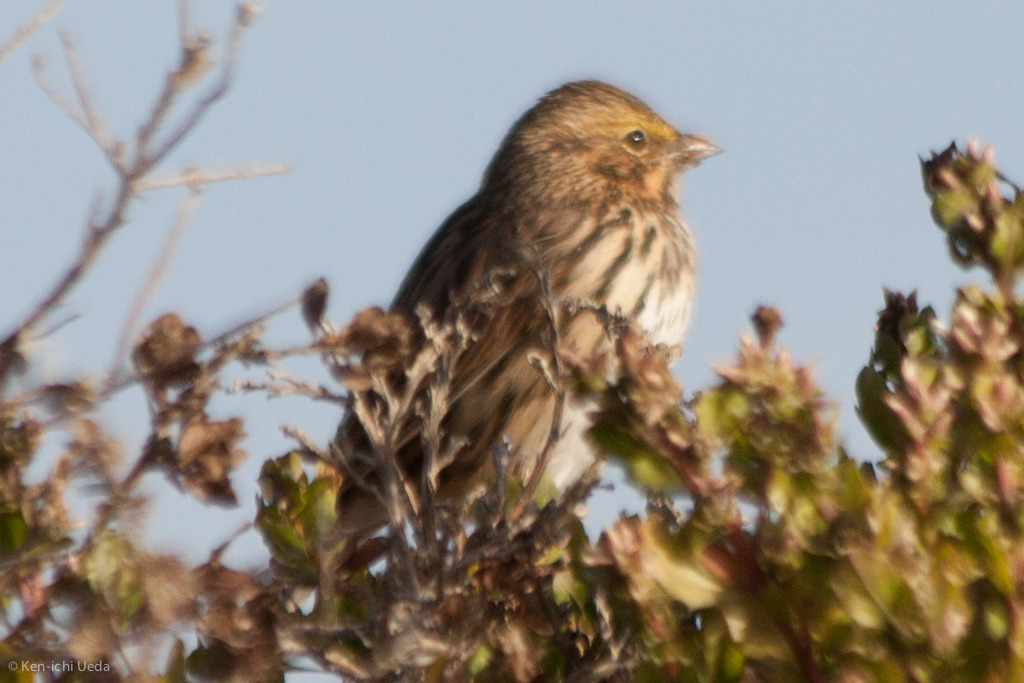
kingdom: Animalia
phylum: Chordata
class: Aves
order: Passeriformes
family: Passerellidae
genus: Passerculus
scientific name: Passerculus sandwichensis
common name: Savannah sparrow
